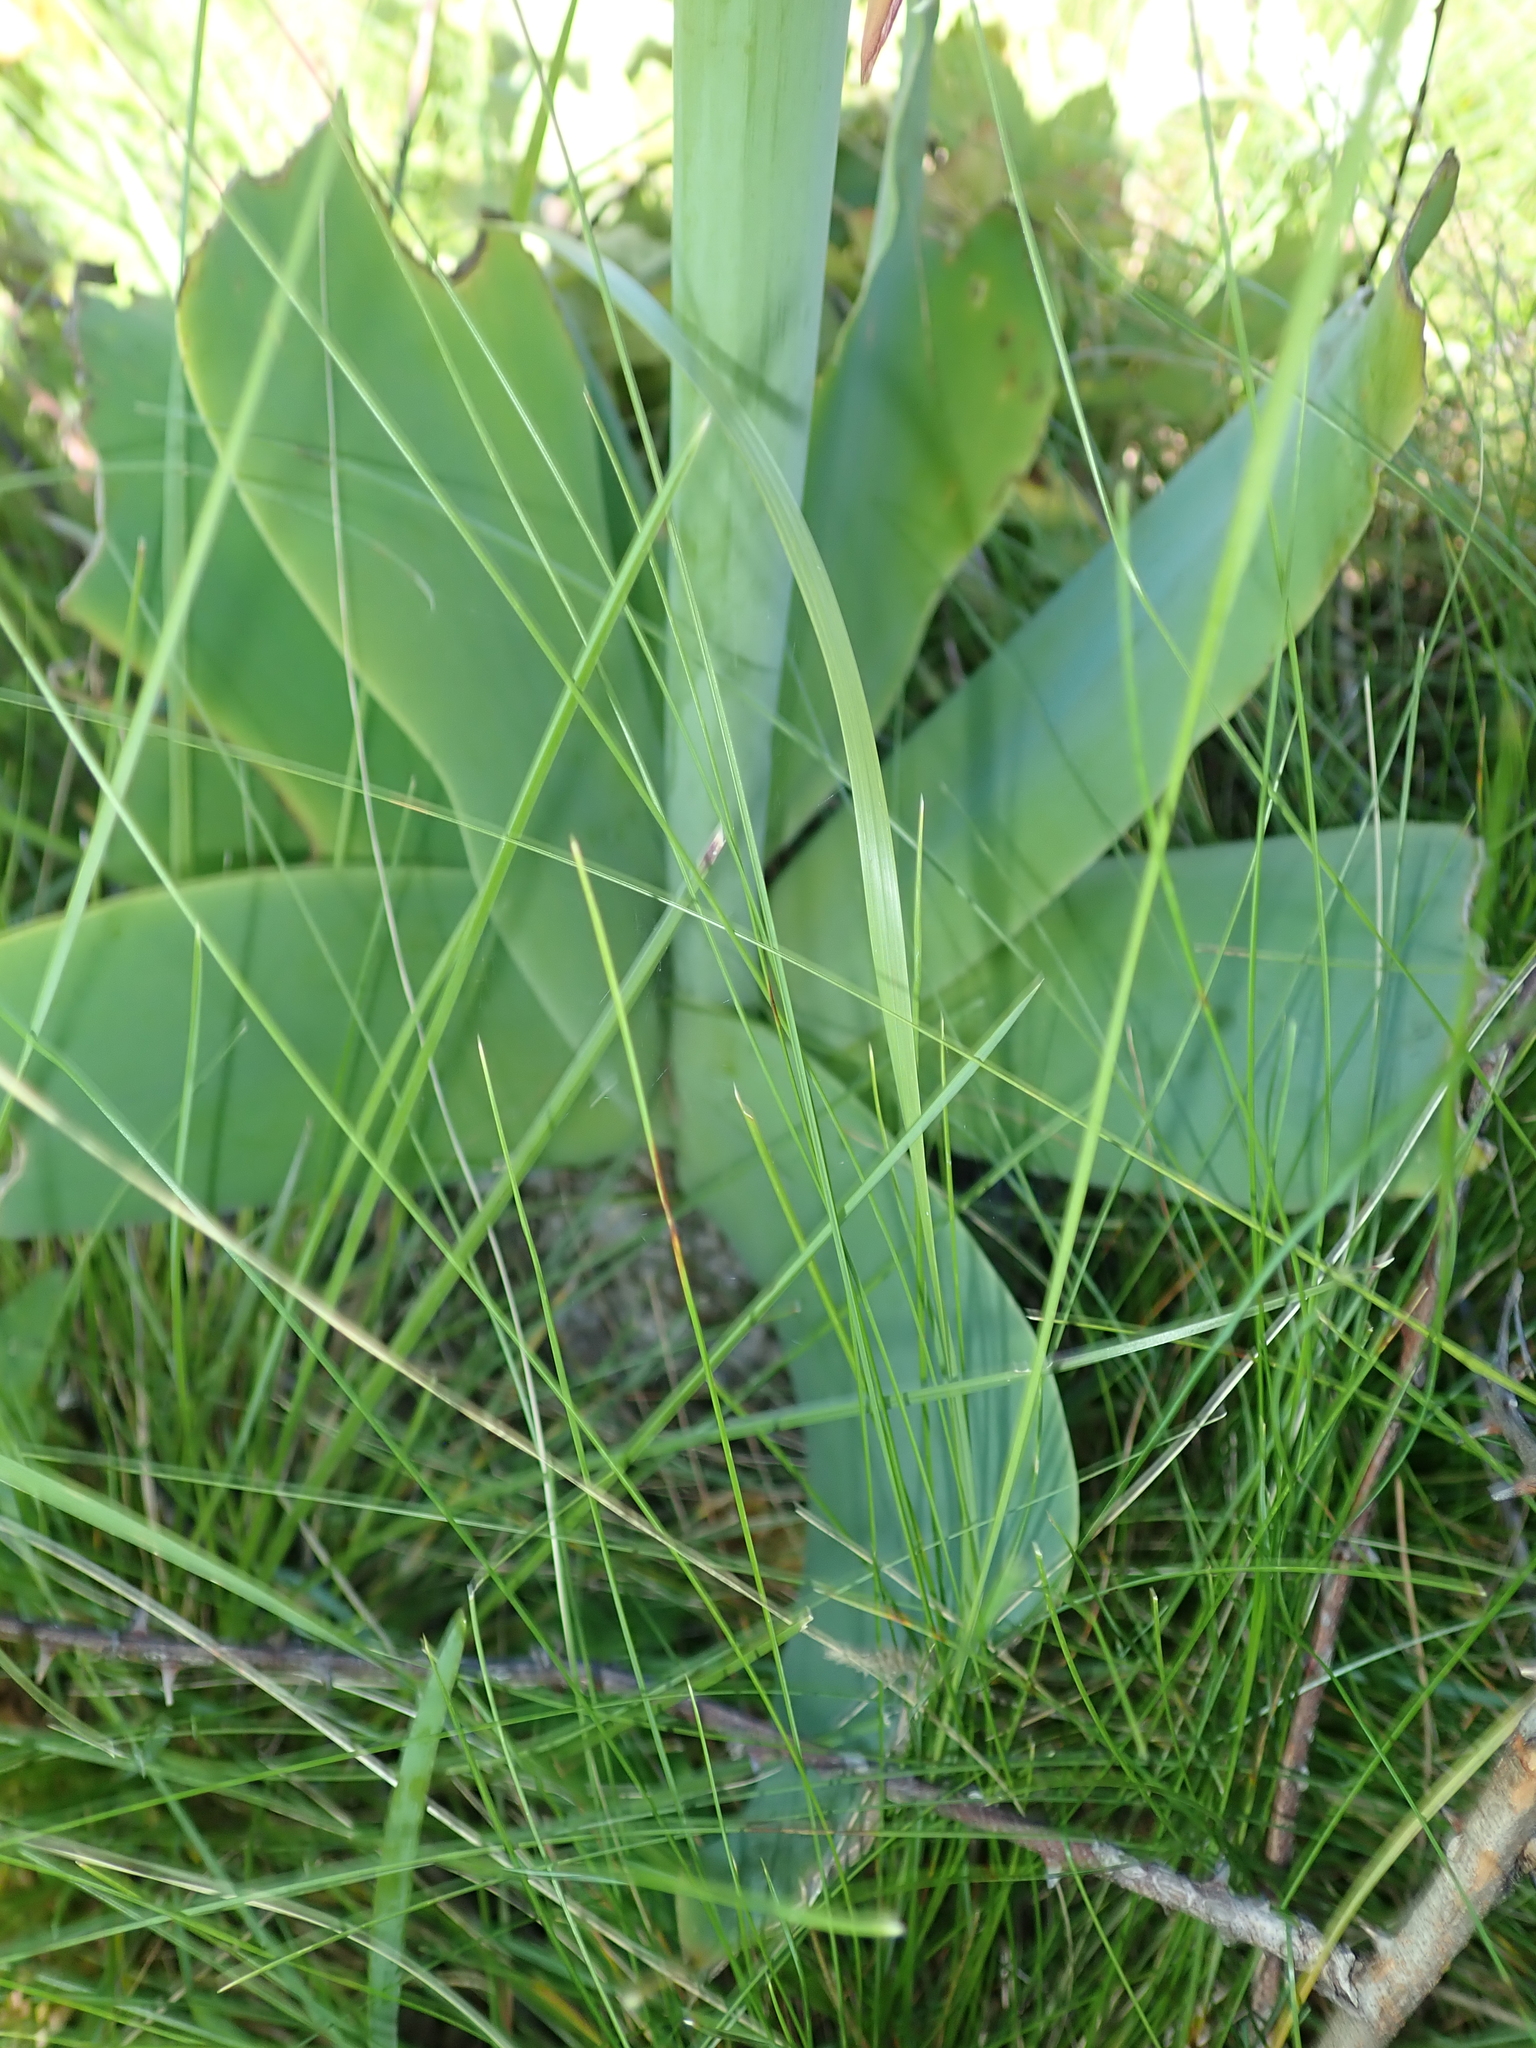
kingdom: Plantae
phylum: Tracheophyta
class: Liliopsida
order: Asparagales
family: Amaryllidaceae
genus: Brunsvigia
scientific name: Brunsvigia grandiflora
